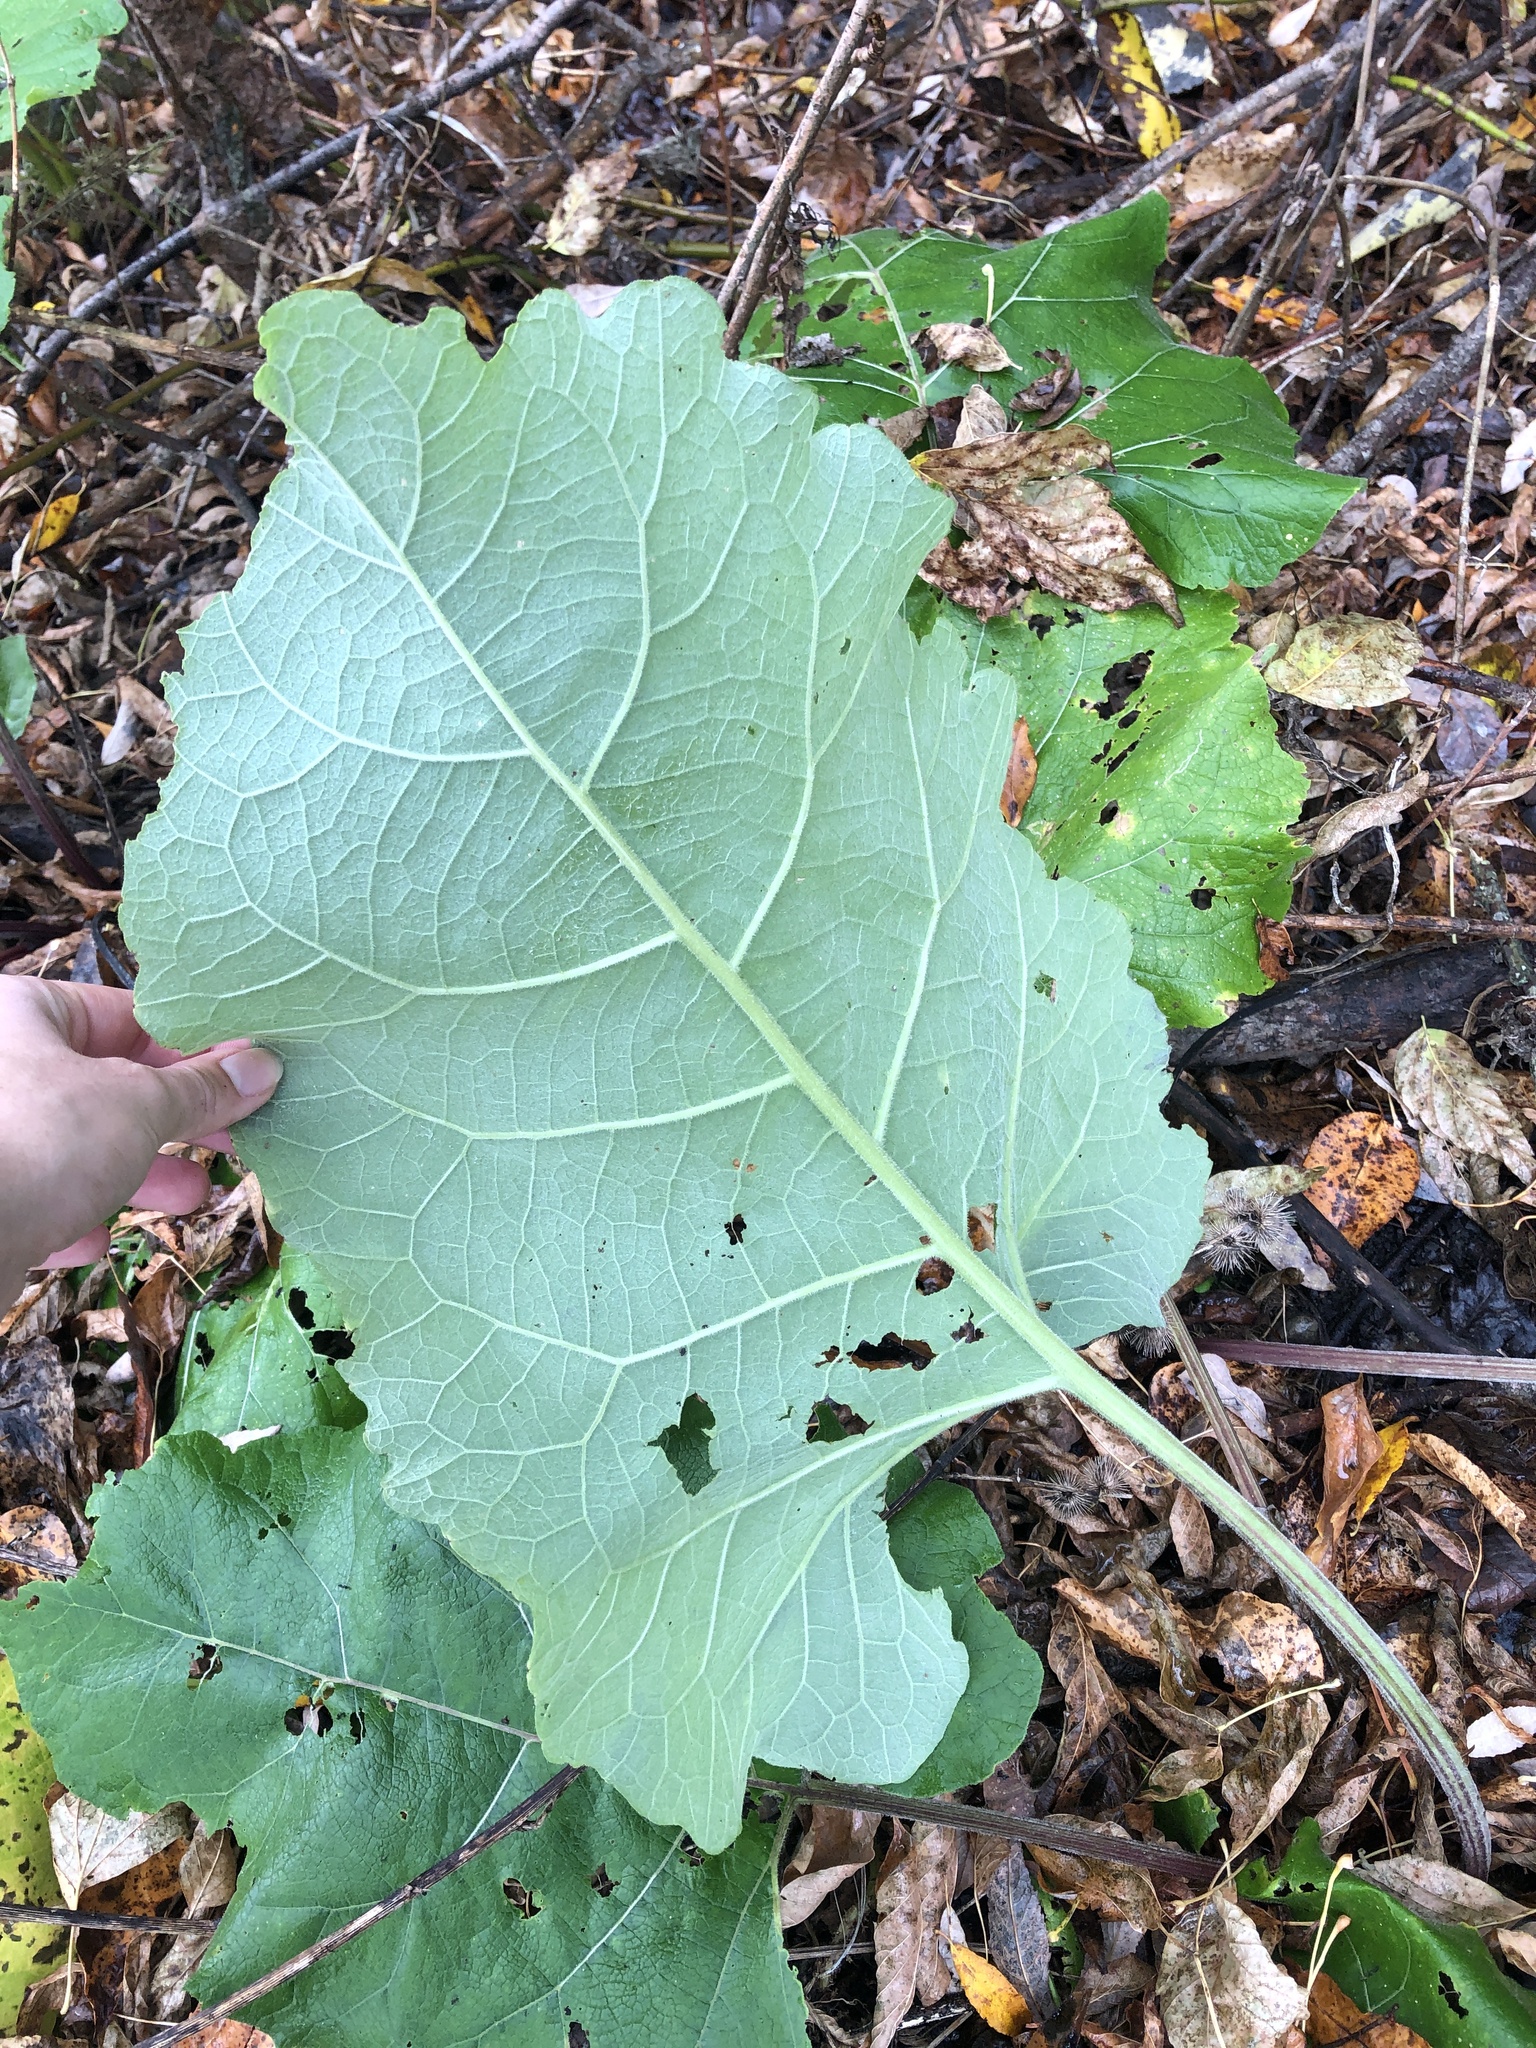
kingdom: Plantae
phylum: Tracheophyta
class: Magnoliopsida
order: Asterales
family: Asteraceae
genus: Arctium
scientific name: Arctium
